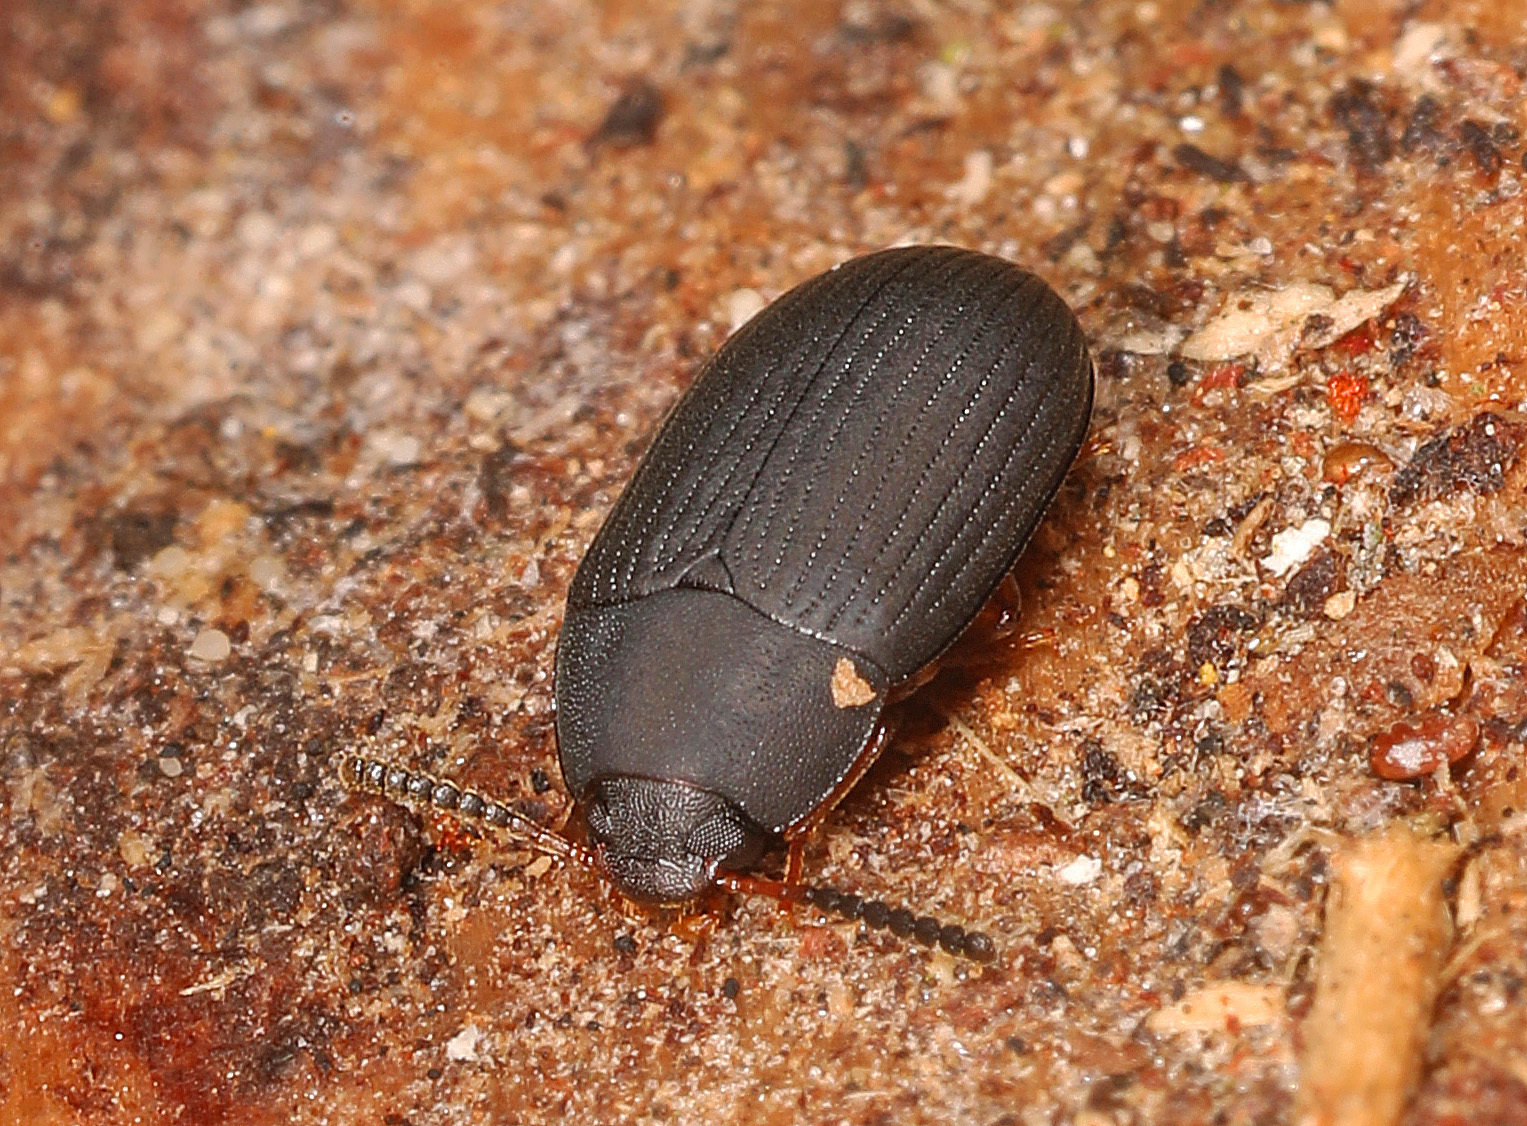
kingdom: Animalia
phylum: Arthropoda
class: Insecta
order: Coleoptera
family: Tenebrionidae
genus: Platydema
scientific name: Platydema ruficornis
